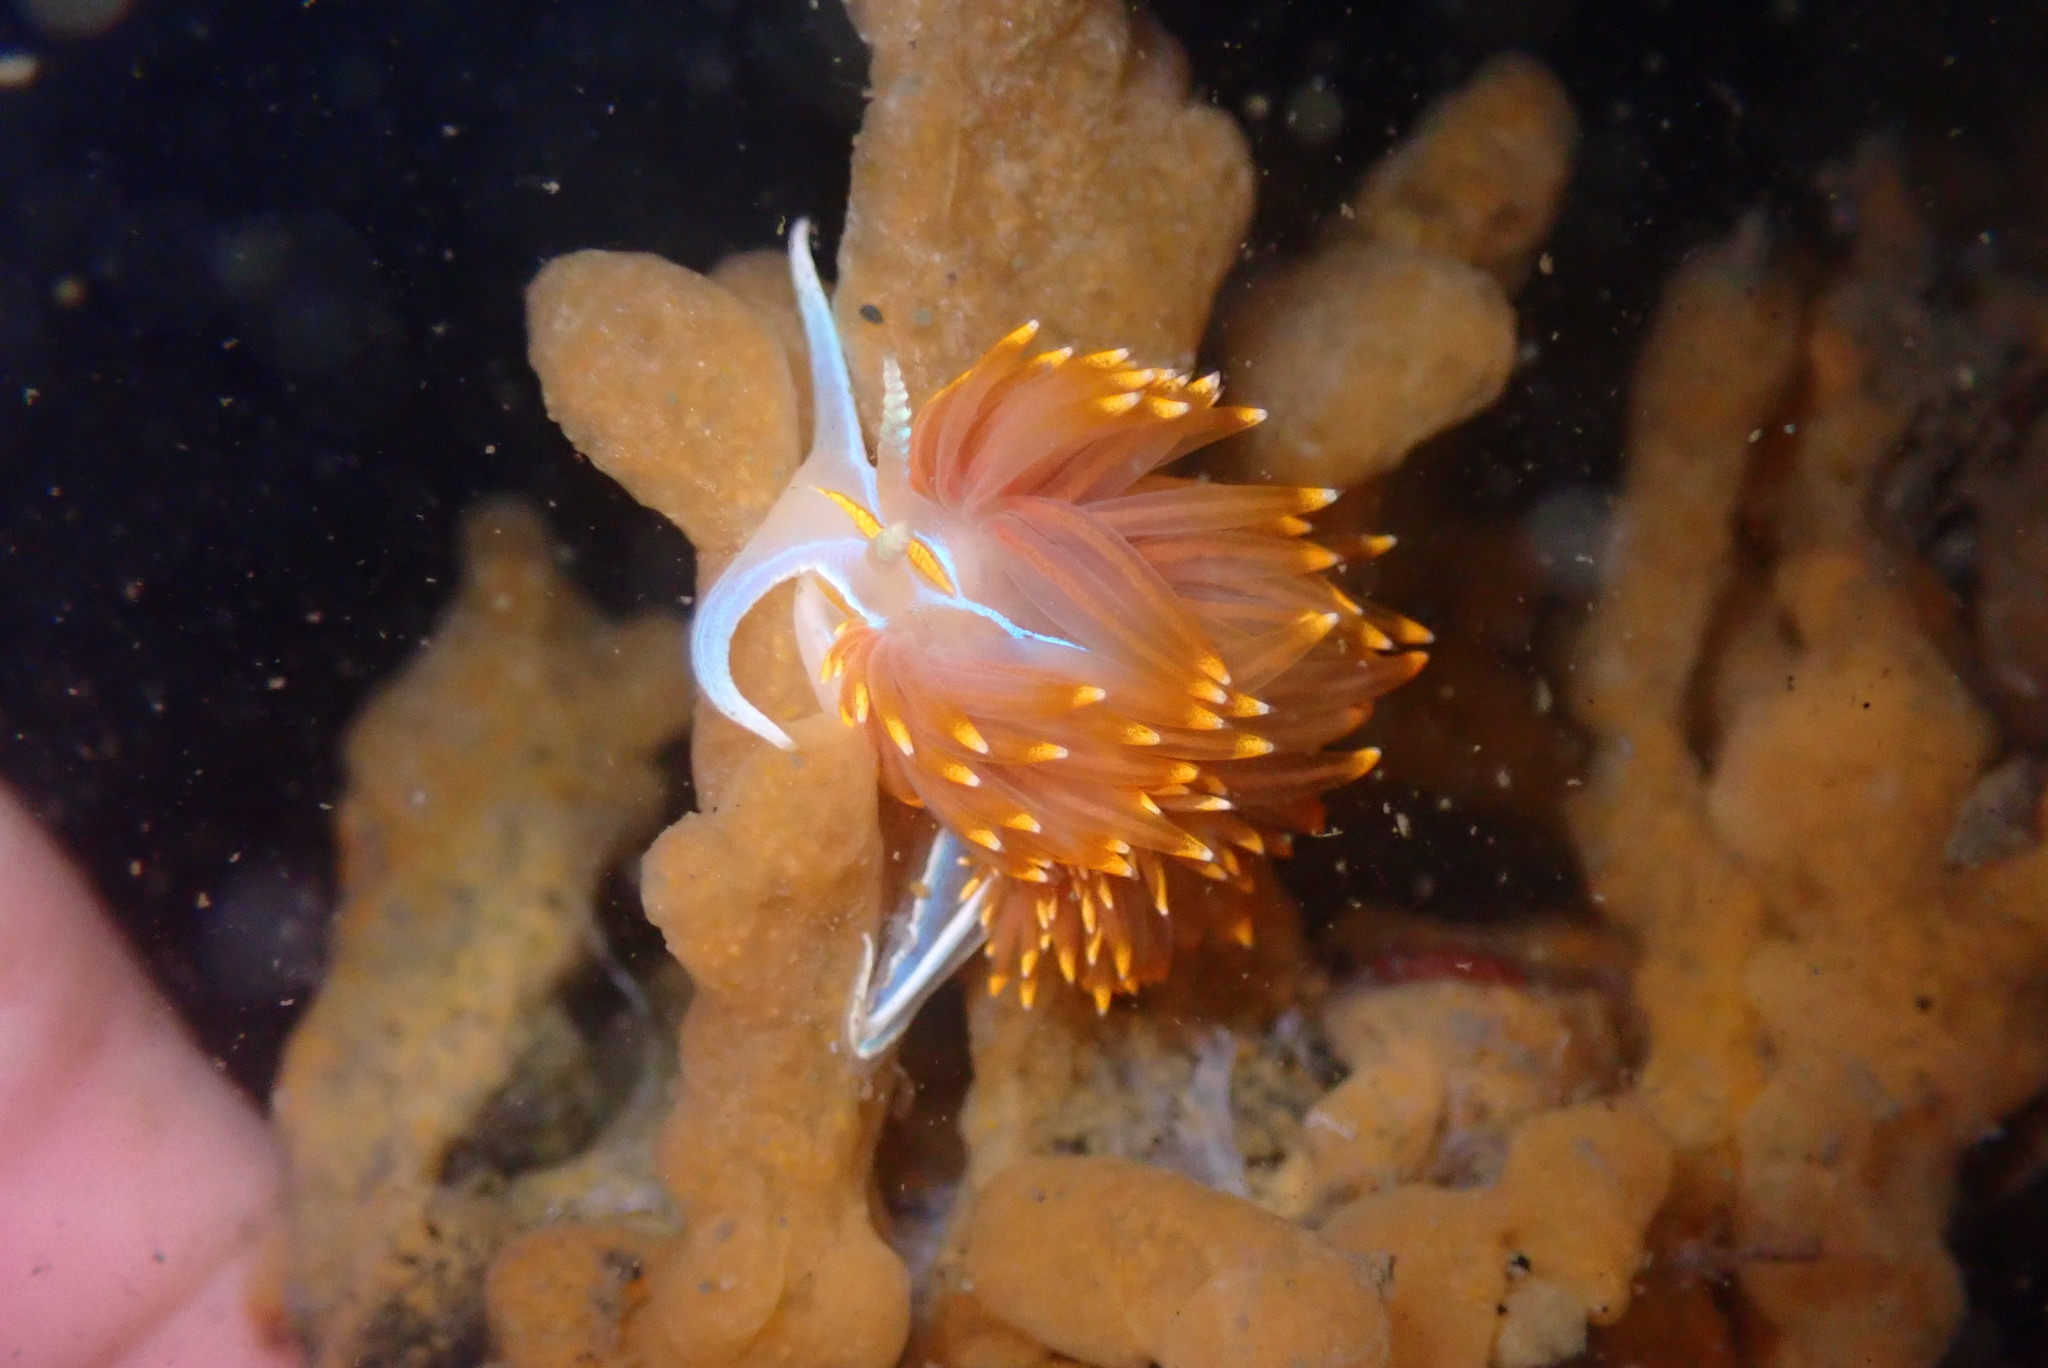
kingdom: Animalia
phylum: Mollusca
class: Gastropoda
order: Nudibranchia
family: Myrrhinidae
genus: Hermissenda
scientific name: Hermissenda opalescens
